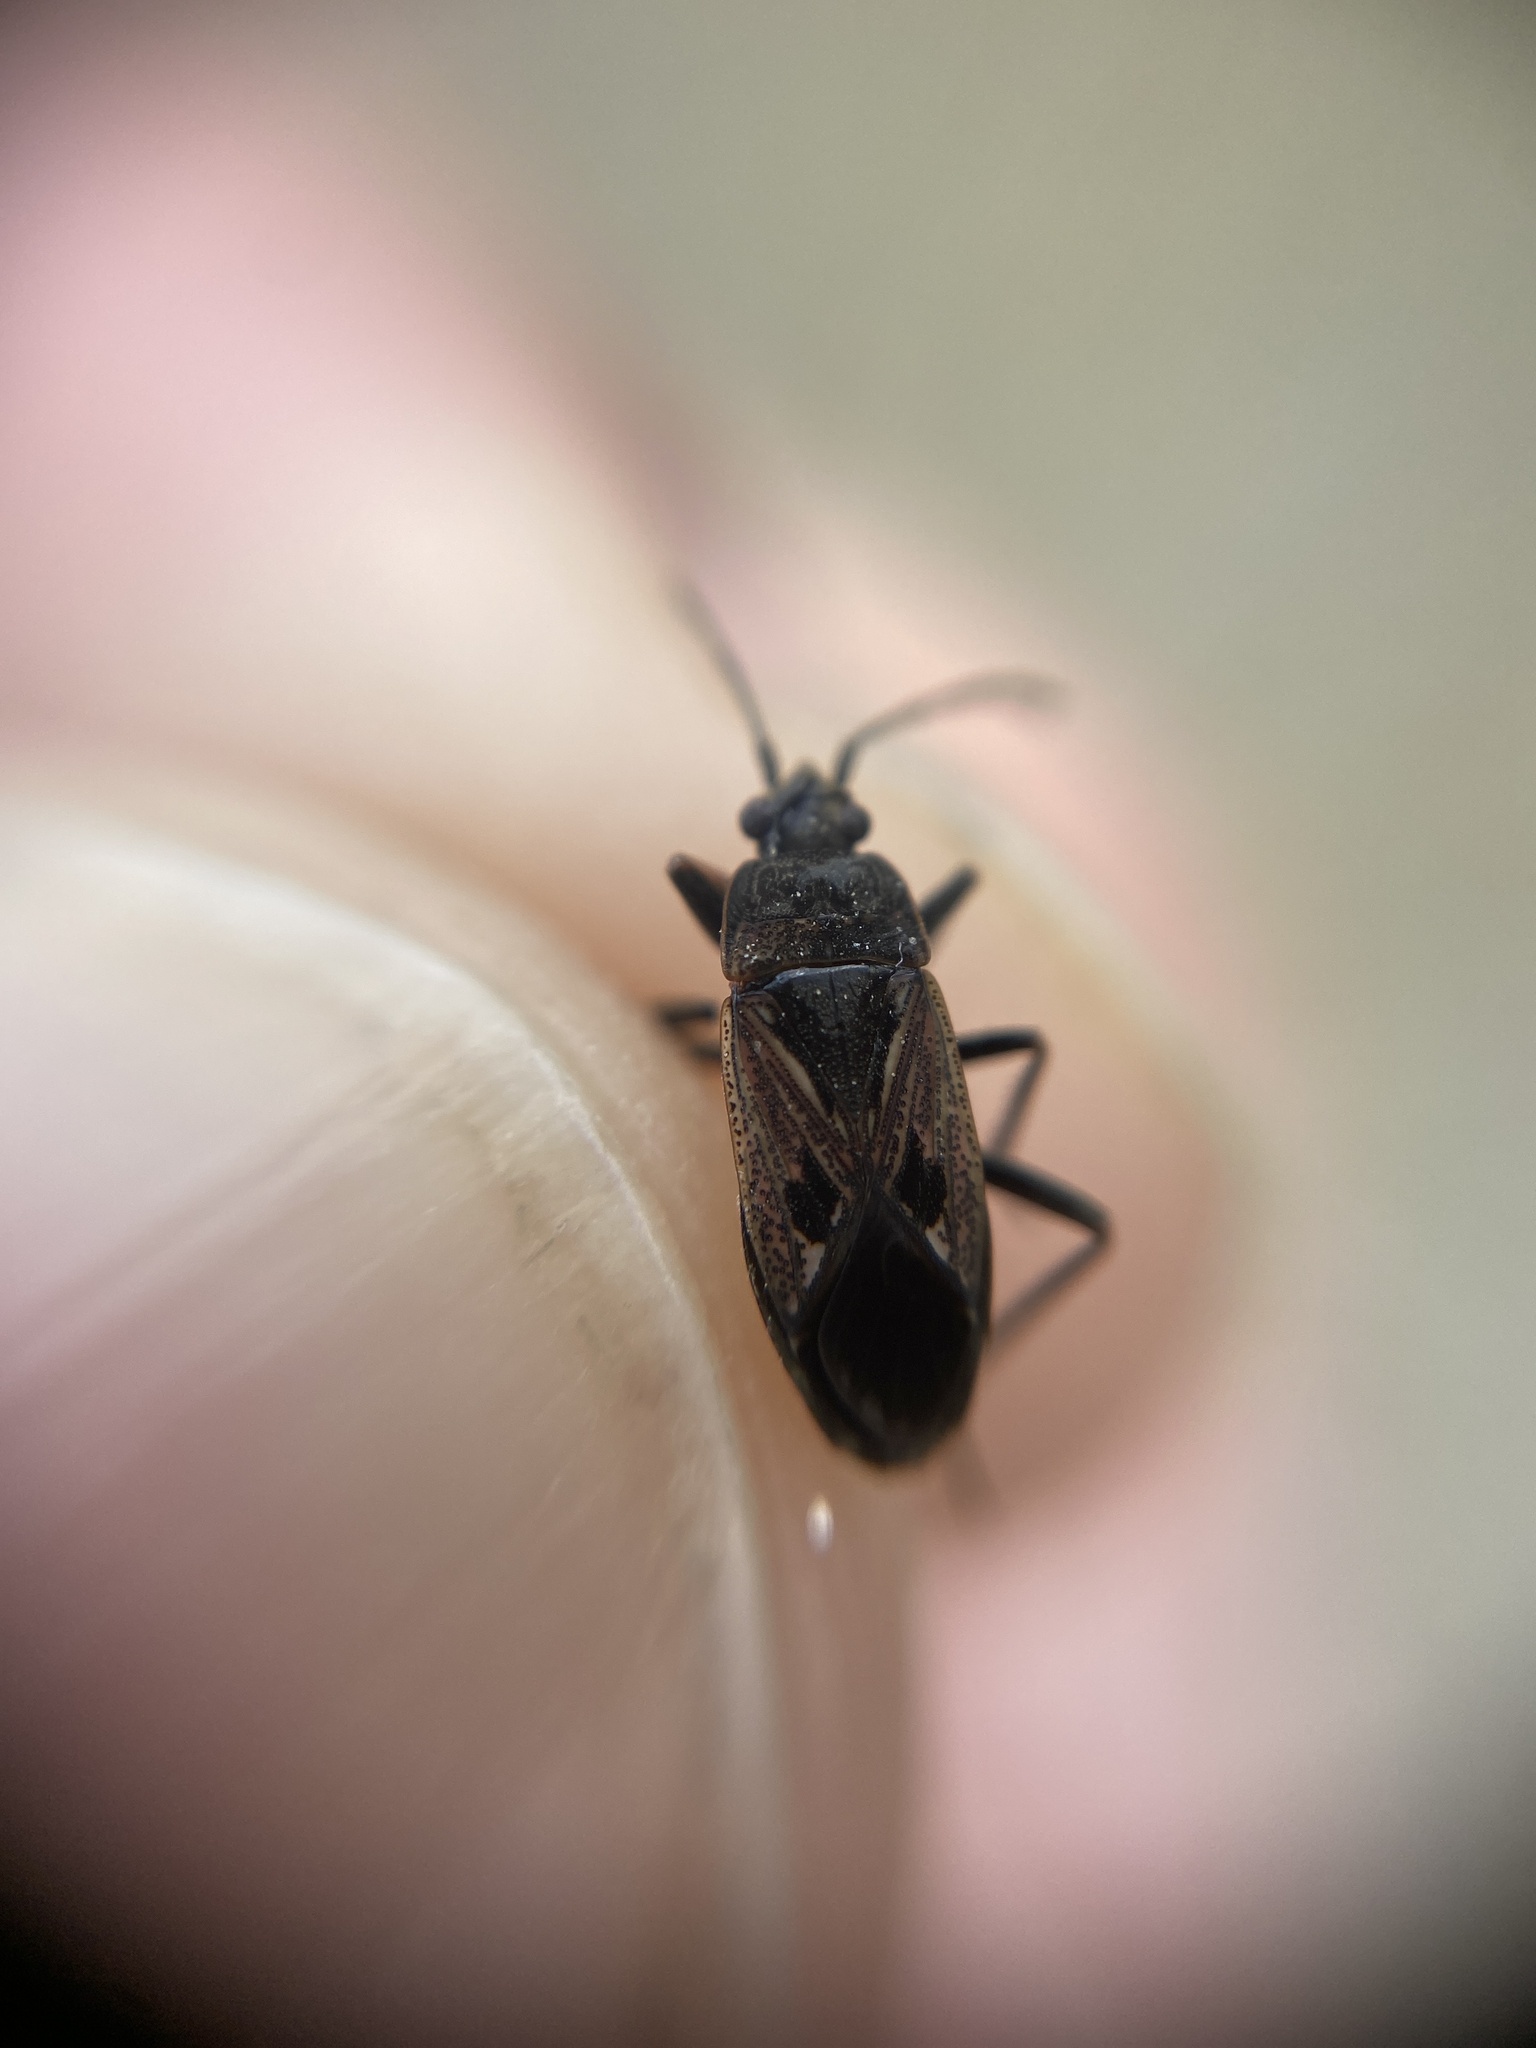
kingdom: Animalia
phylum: Arthropoda
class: Insecta
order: Hemiptera
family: Rhyparochromidae
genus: Rhyparochromus
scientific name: Rhyparochromus pini
